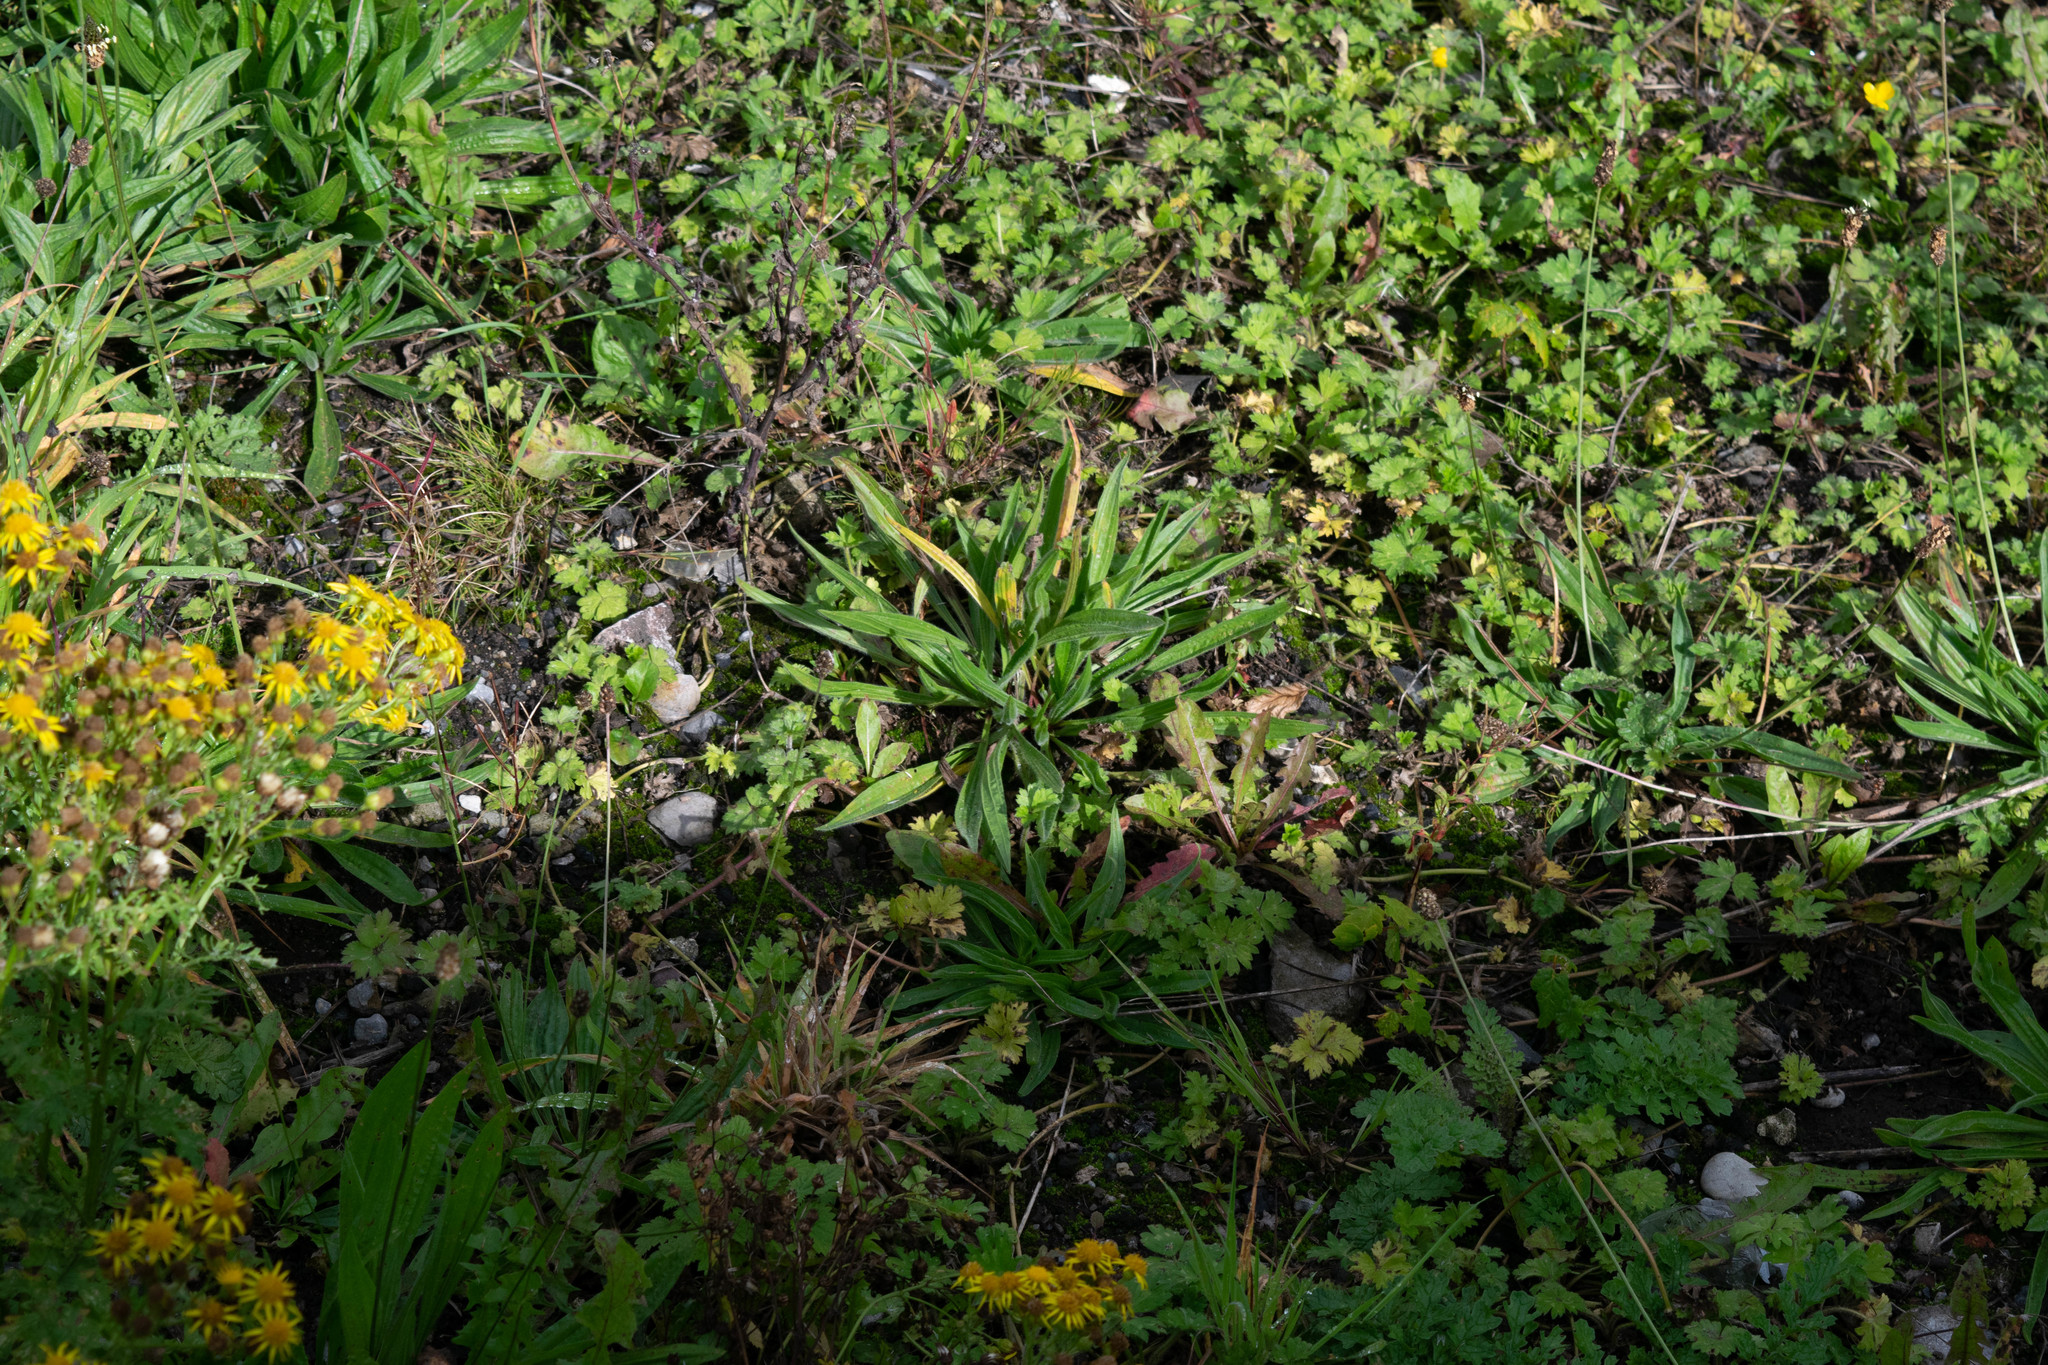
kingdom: Plantae
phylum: Tracheophyta
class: Magnoliopsida
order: Lamiales
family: Plantaginaceae
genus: Plantago
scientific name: Plantago lanceolata
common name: Ribwort plantain
